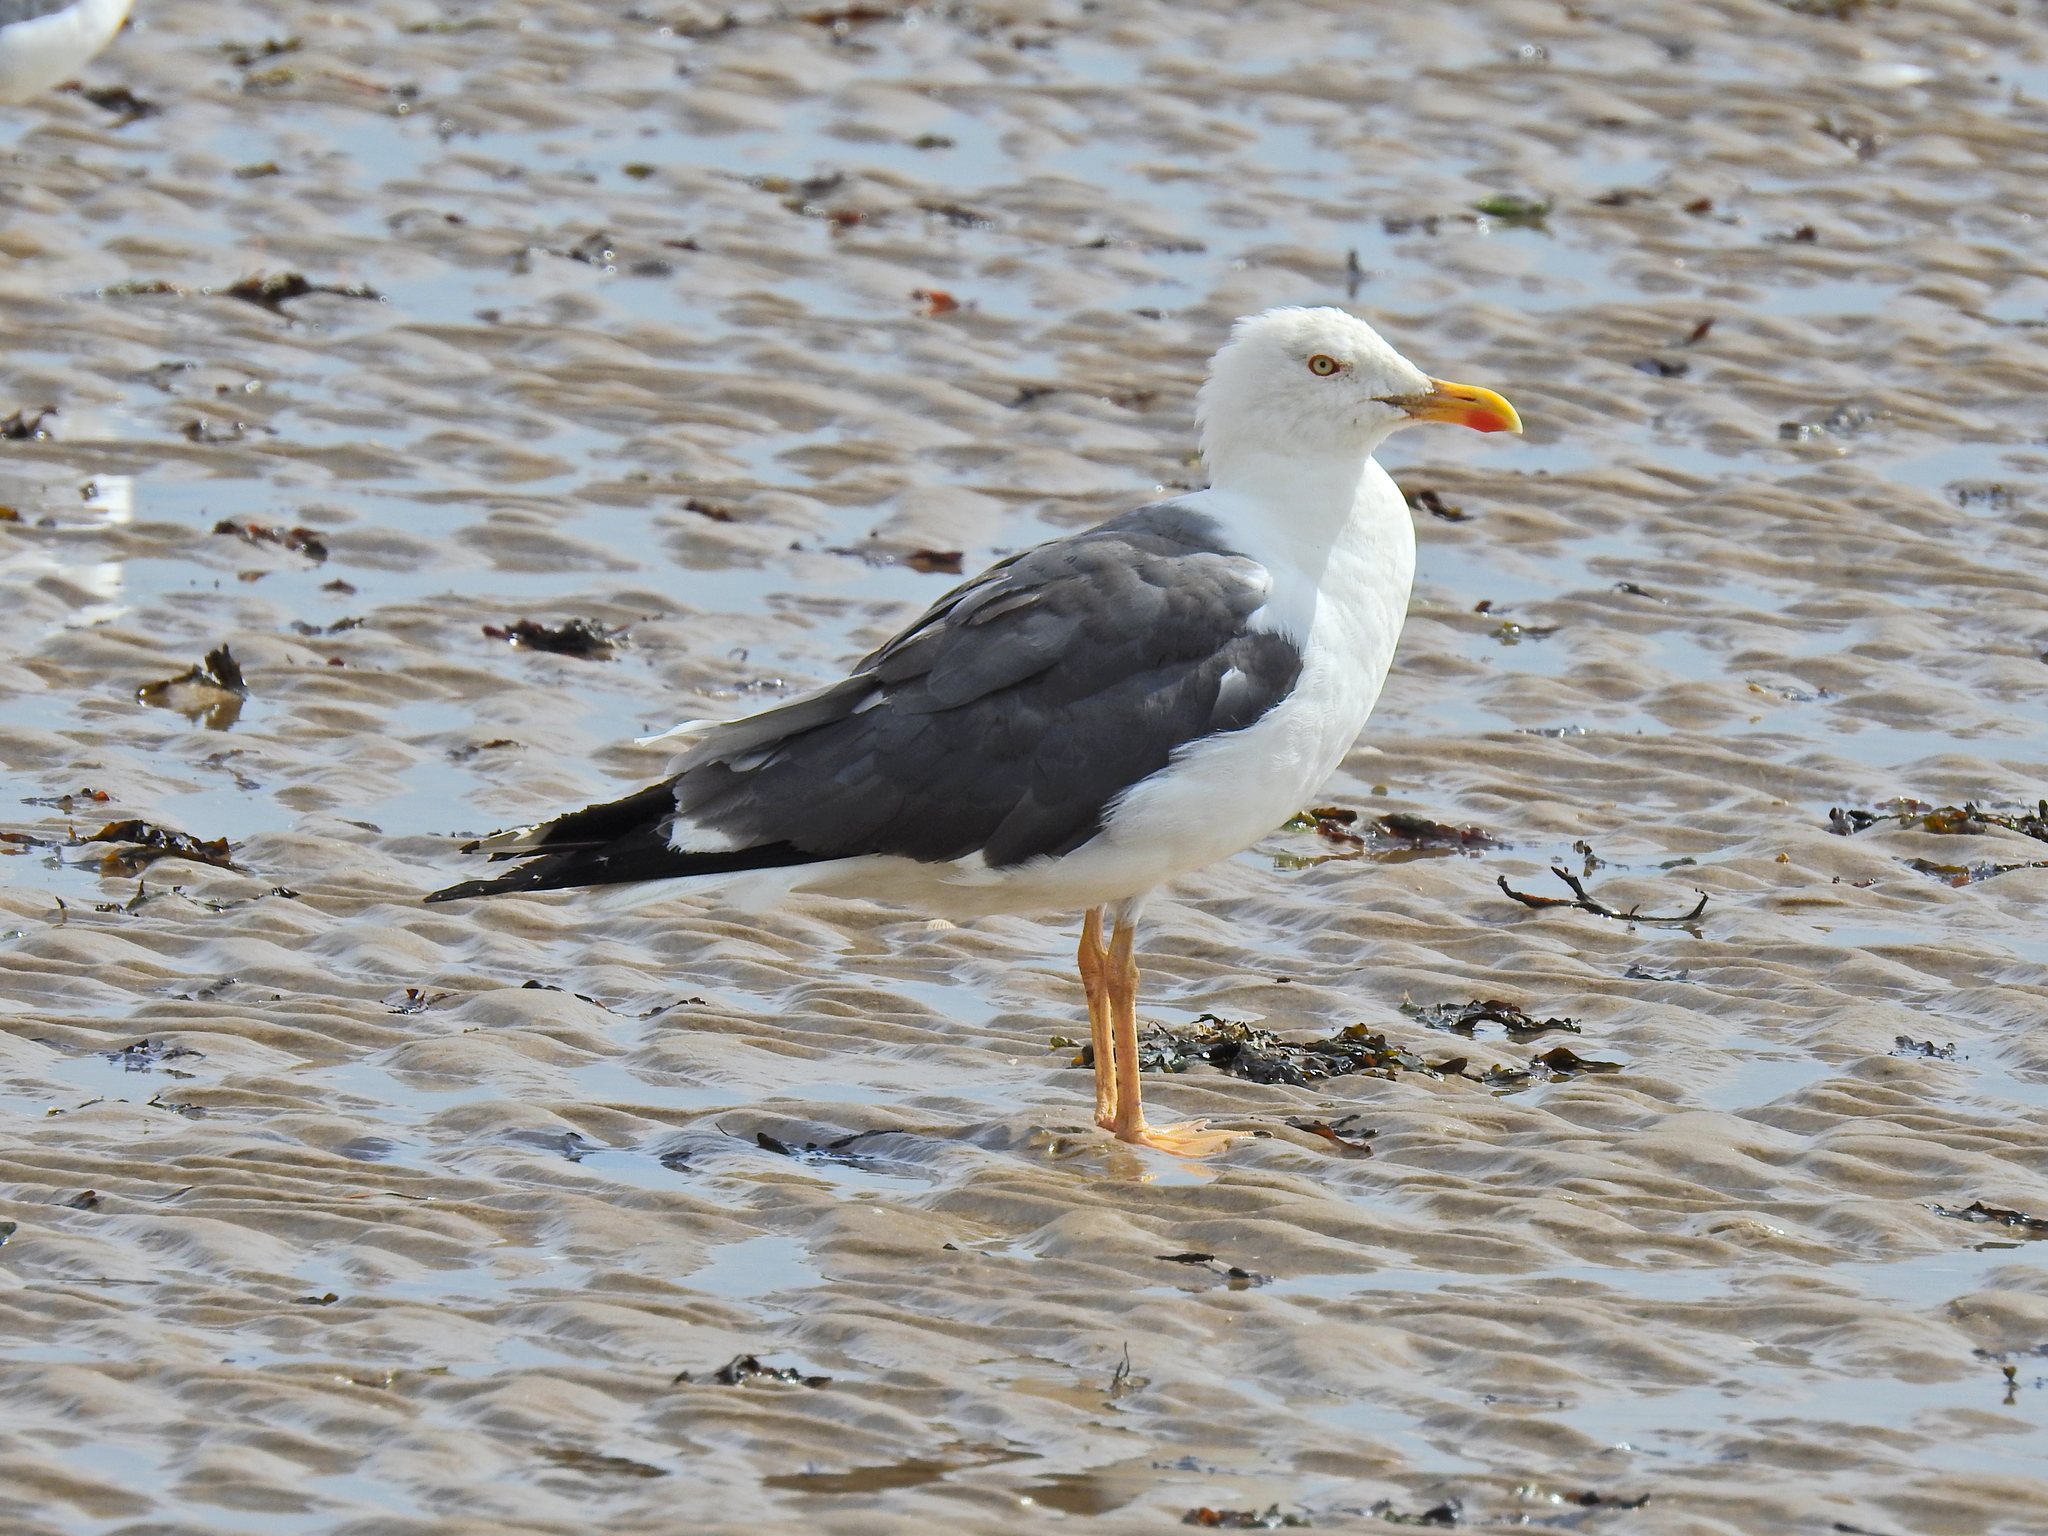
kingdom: Animalia
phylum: Chordata
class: Aves
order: Charadriiformes
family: Laridae
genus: Larus
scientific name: Larus fuscus
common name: Lesser black-backed gull
